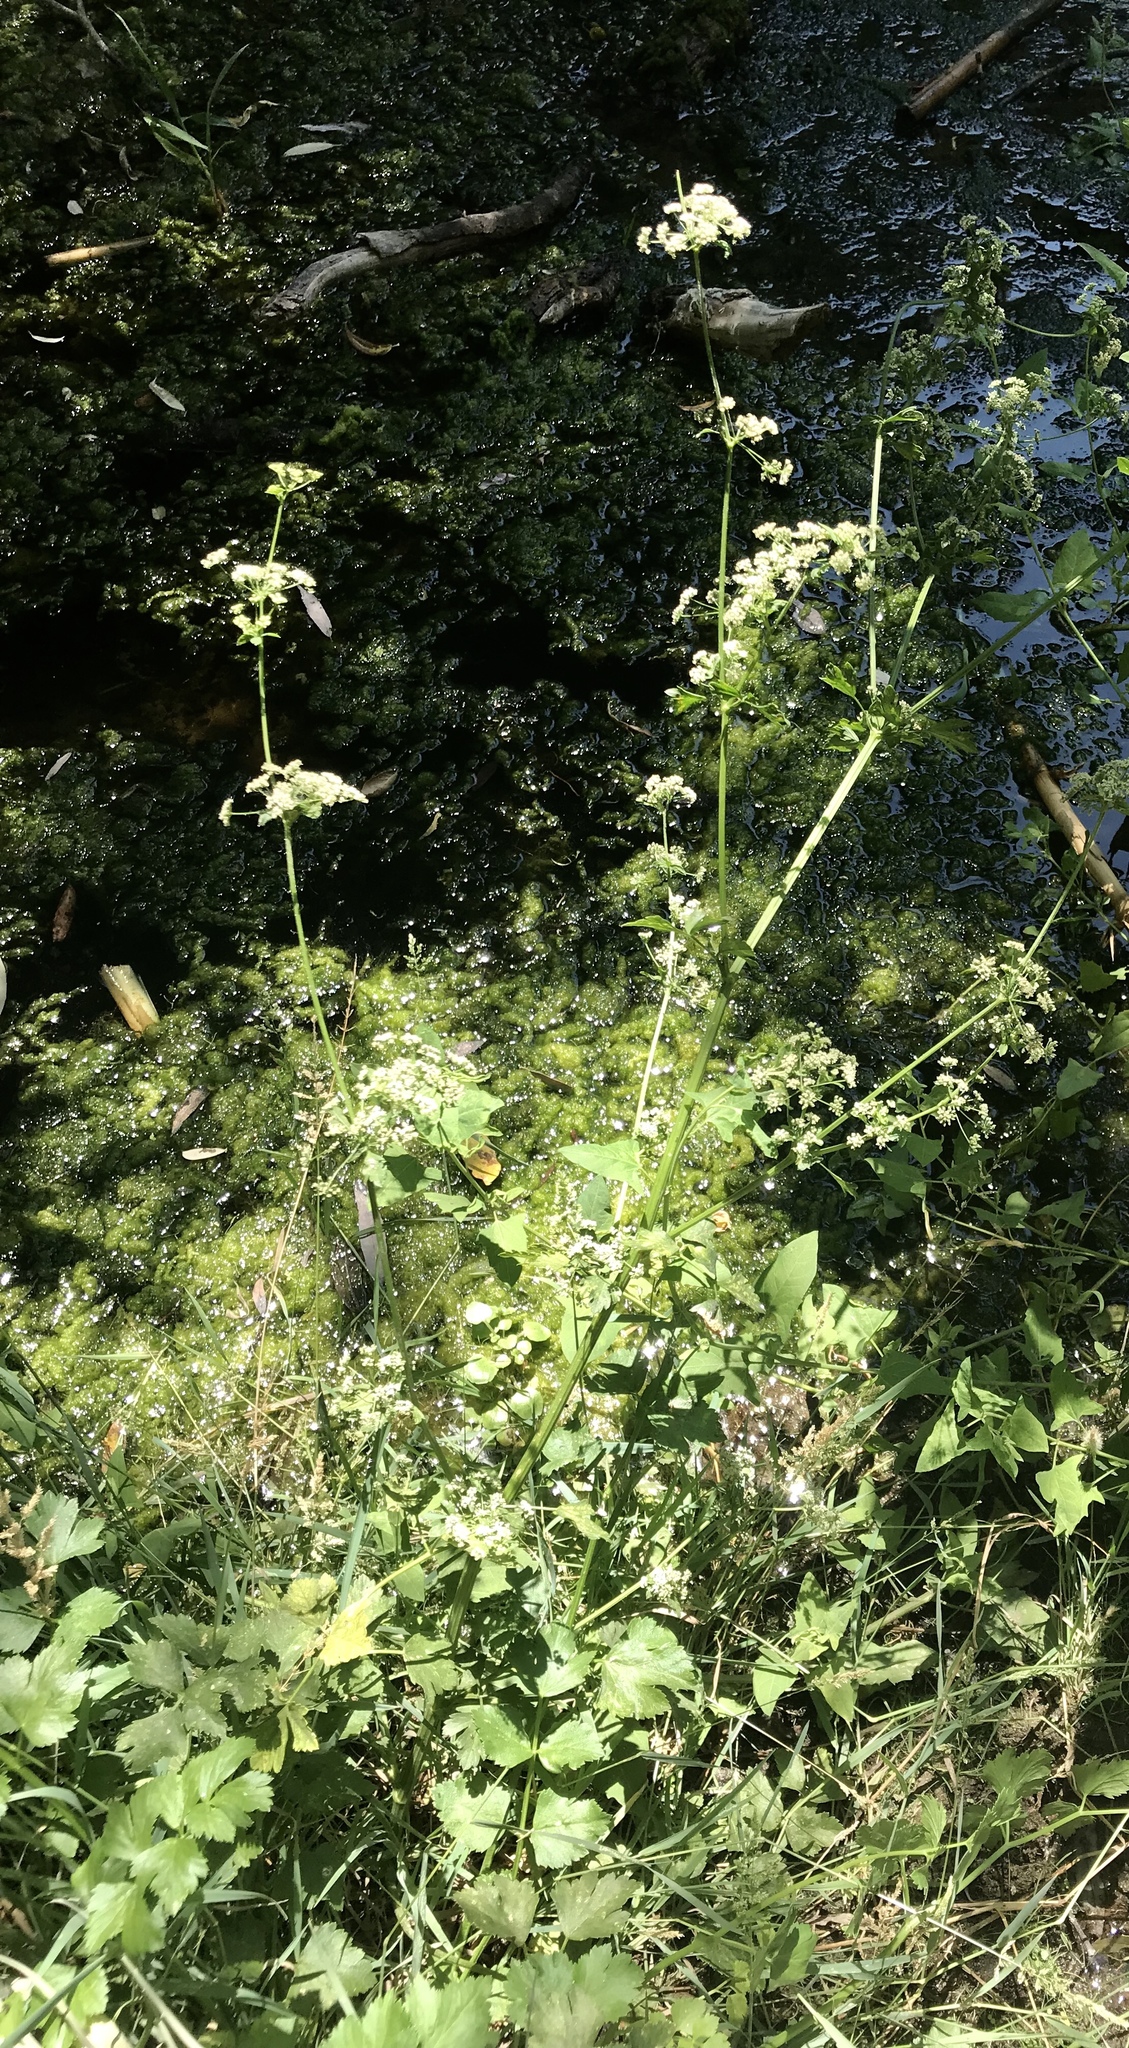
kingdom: Plantae
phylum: Tracheophyta
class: Magnoliopsida
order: Apiales
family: Apiaceae
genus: Apium
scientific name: Apium graveolens
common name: Wild celery
